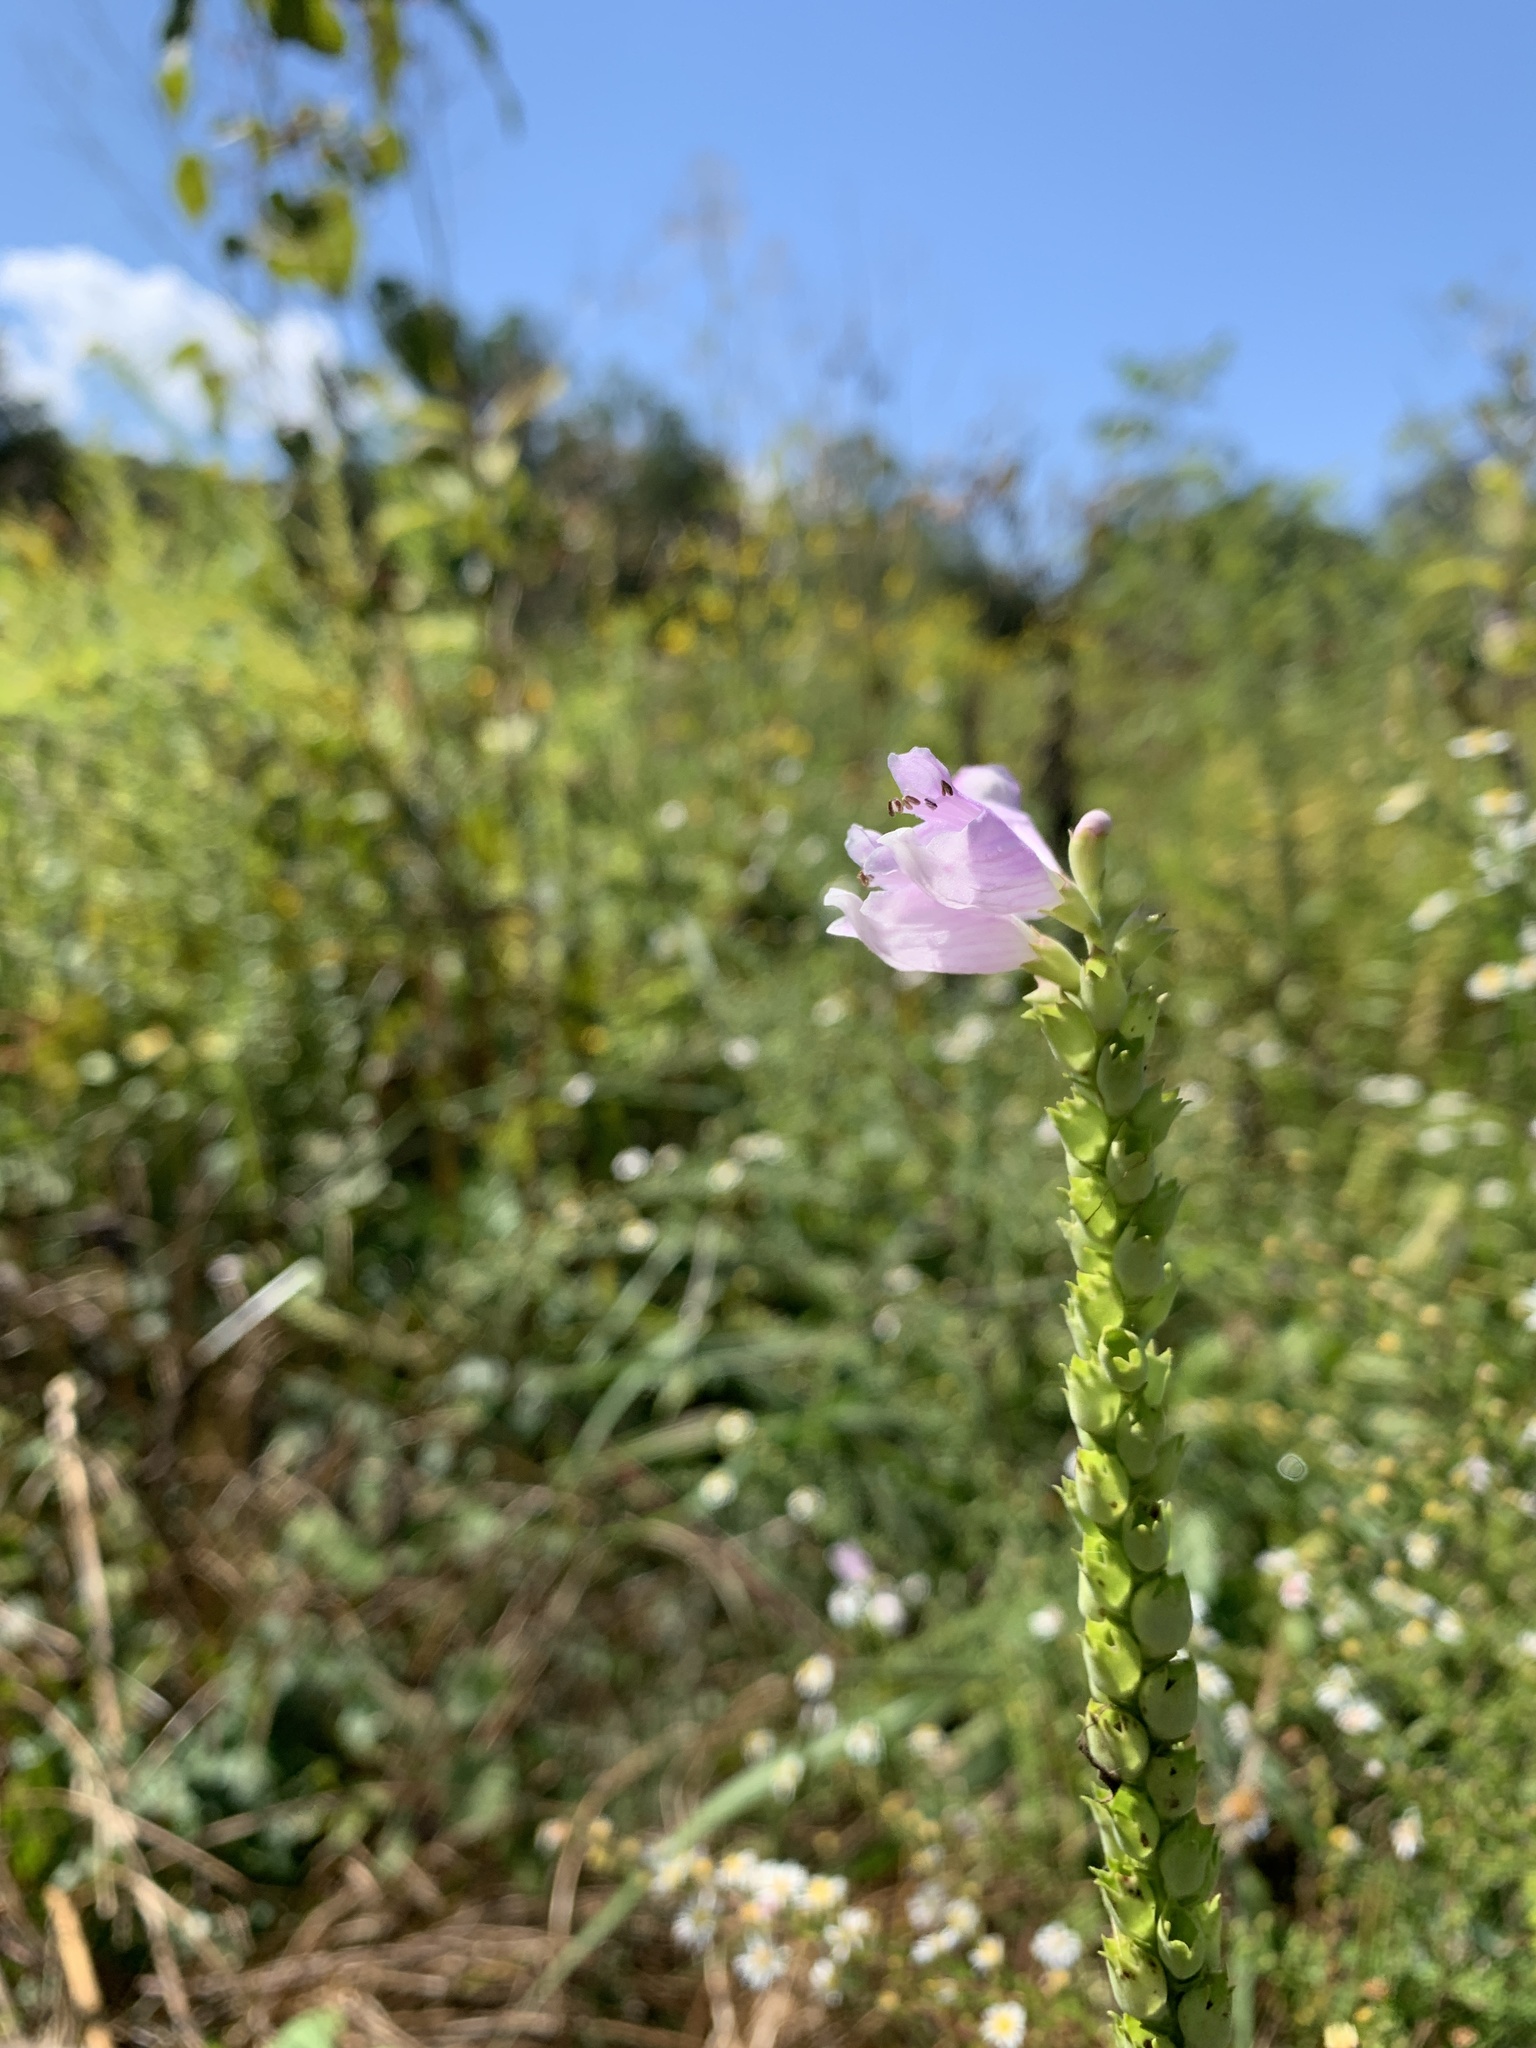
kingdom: Plantae
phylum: Tracheophyta
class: Magnoliopsida
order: Lamiales
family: Lamiaceae
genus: Physostegia
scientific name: Physostegia virginiana
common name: Obedient-plant
